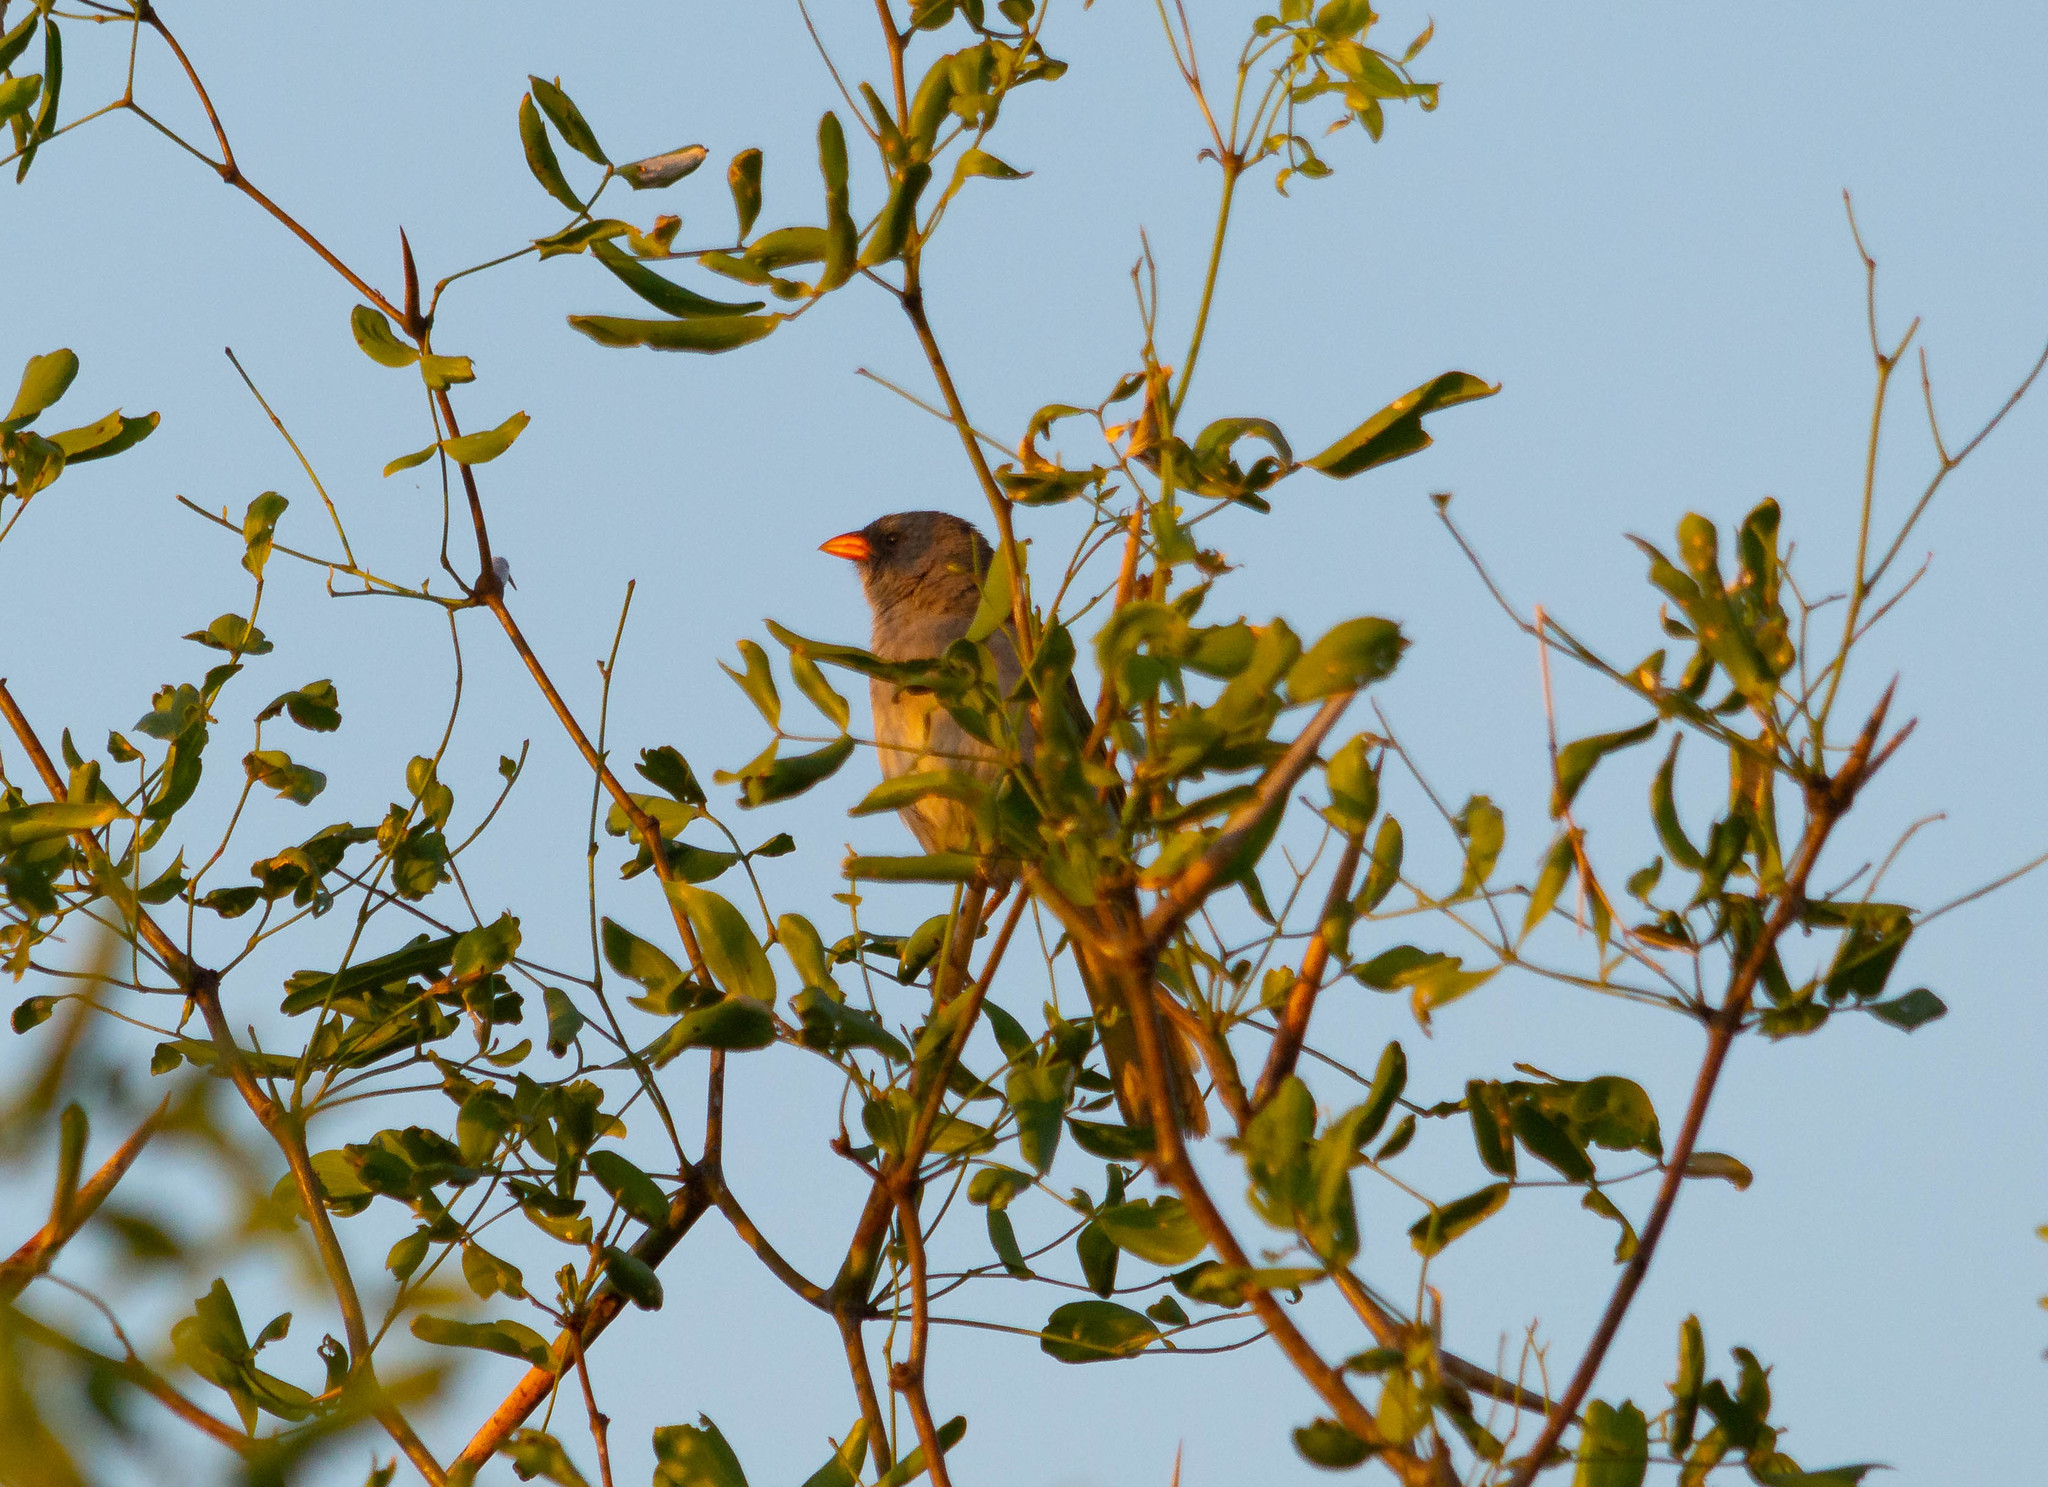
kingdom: Animalia
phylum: Chordata
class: Aves
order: Passeriformes
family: Thraupidae
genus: Embernagra
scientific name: Embernagra platensis
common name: Pampa finch
